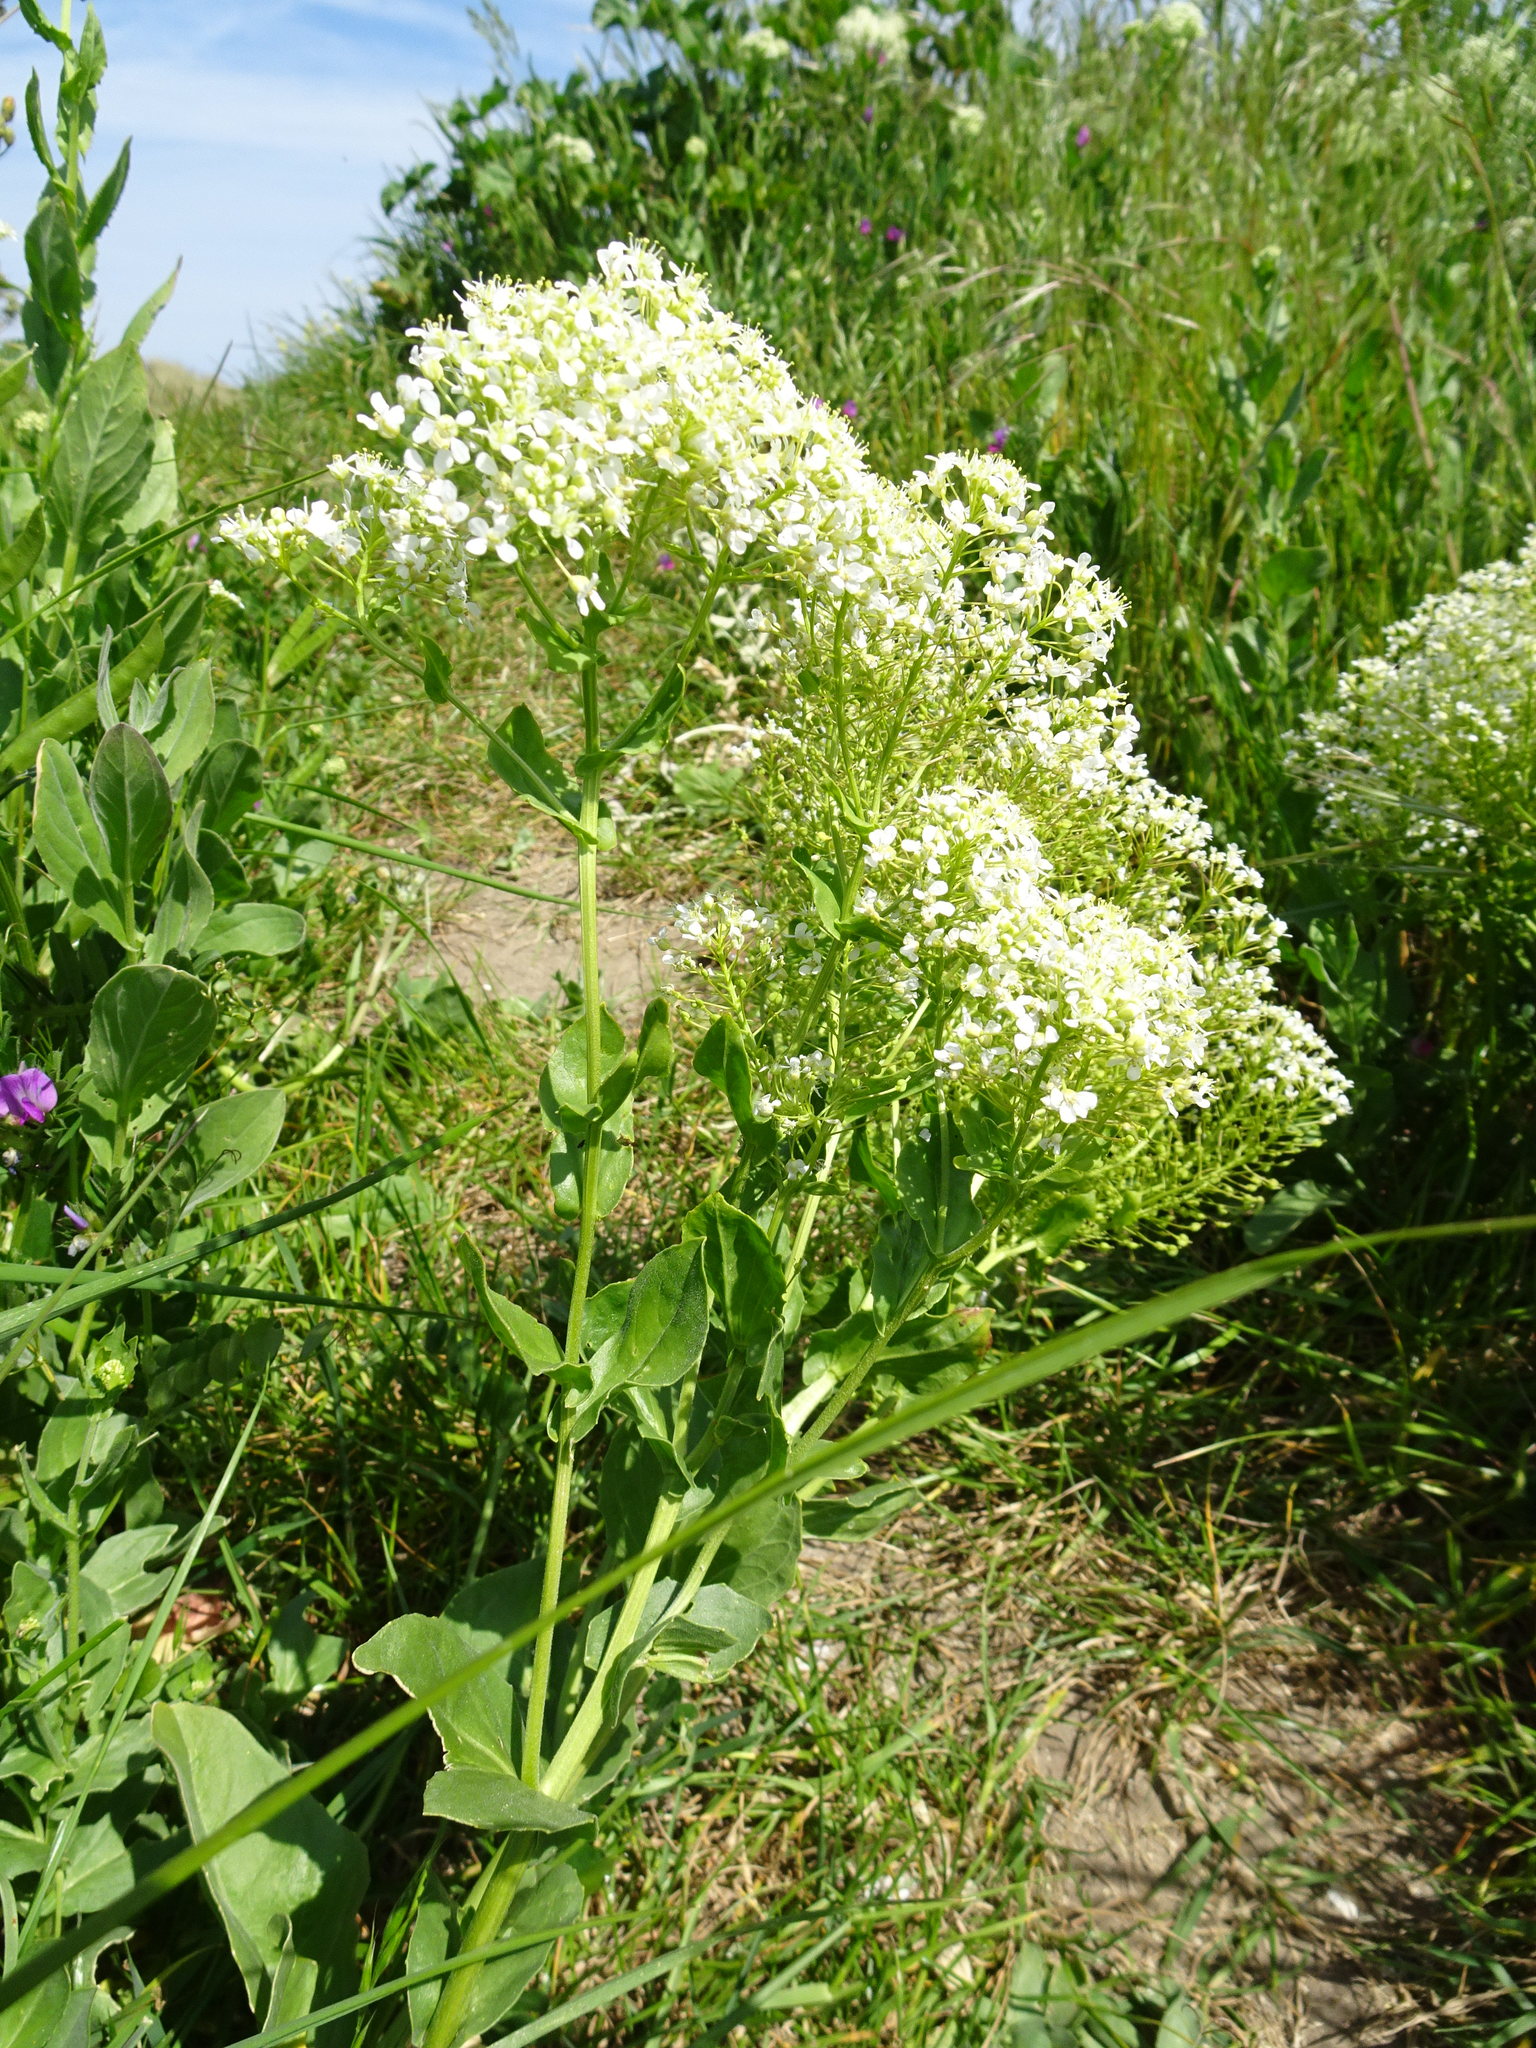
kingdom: Plantae
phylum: Tracheophyta
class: Magnoliopsida
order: Brassicales
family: Brassicaceae
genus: Lepidium
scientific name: Lepidium draba
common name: Hoary cress
